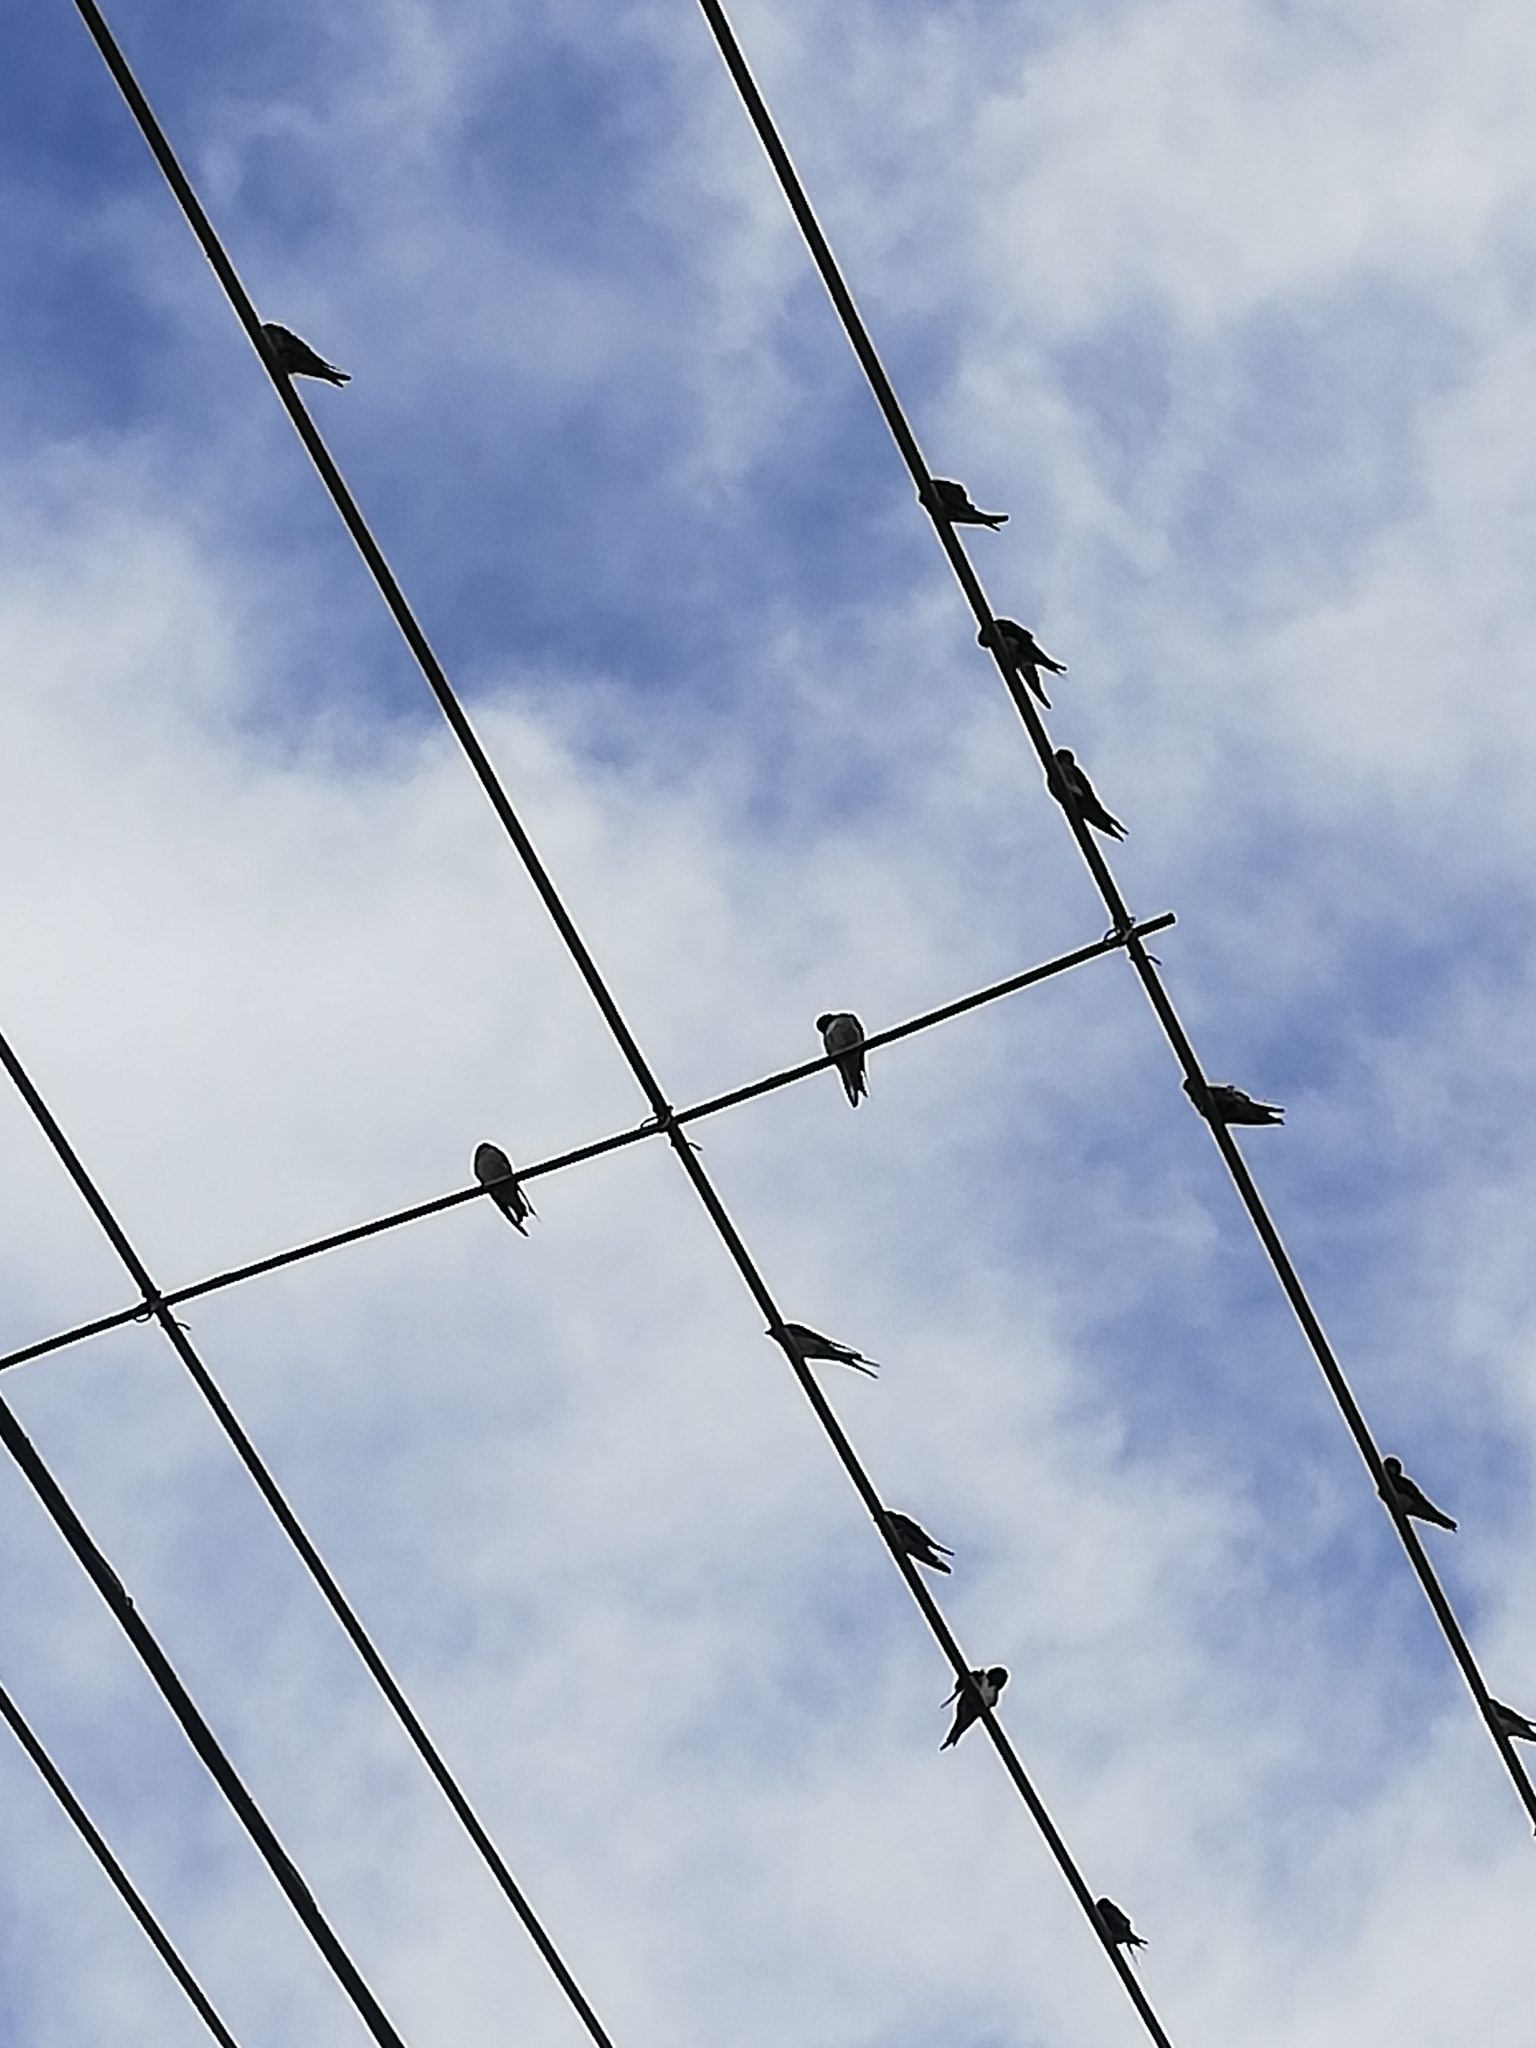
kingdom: Animalia
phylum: Chordata
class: Aves
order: Passeriformes
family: Hirundinidae
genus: Hirundo
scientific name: Hirundo neoxena
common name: Welcome swallow
